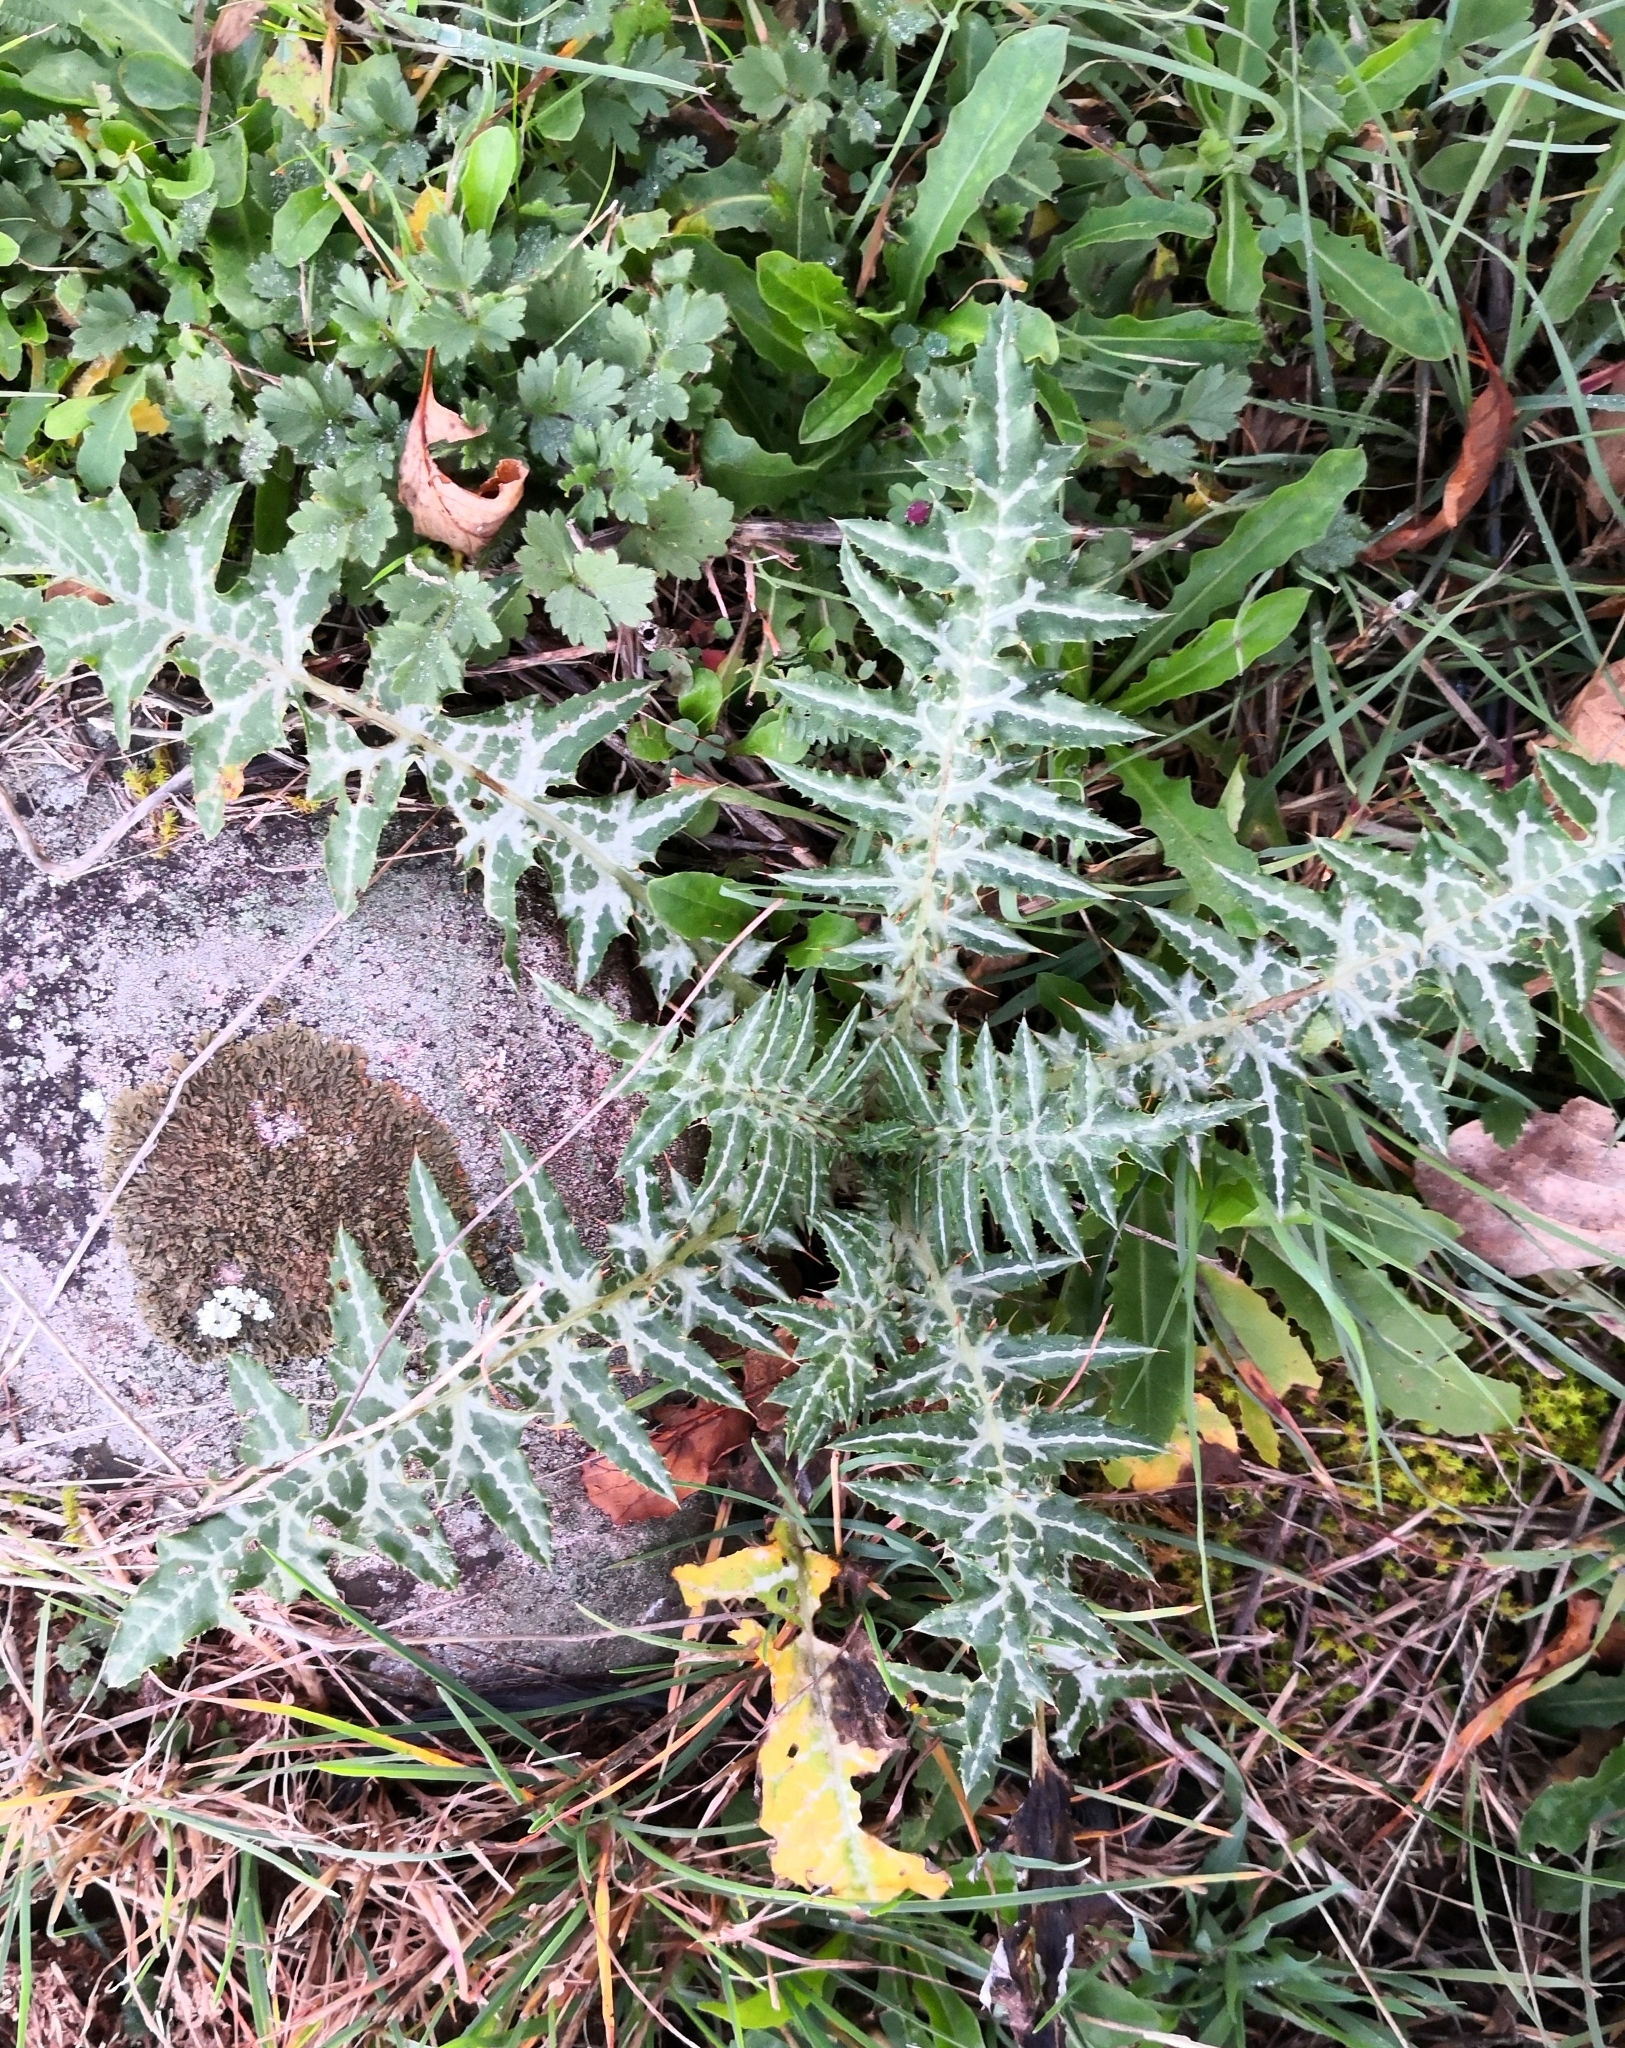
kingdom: Plantae
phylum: Tracheophyta
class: Magnoliopsida
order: Asterales
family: Asteraceae
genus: Galactites
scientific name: Galactites tomentosa
